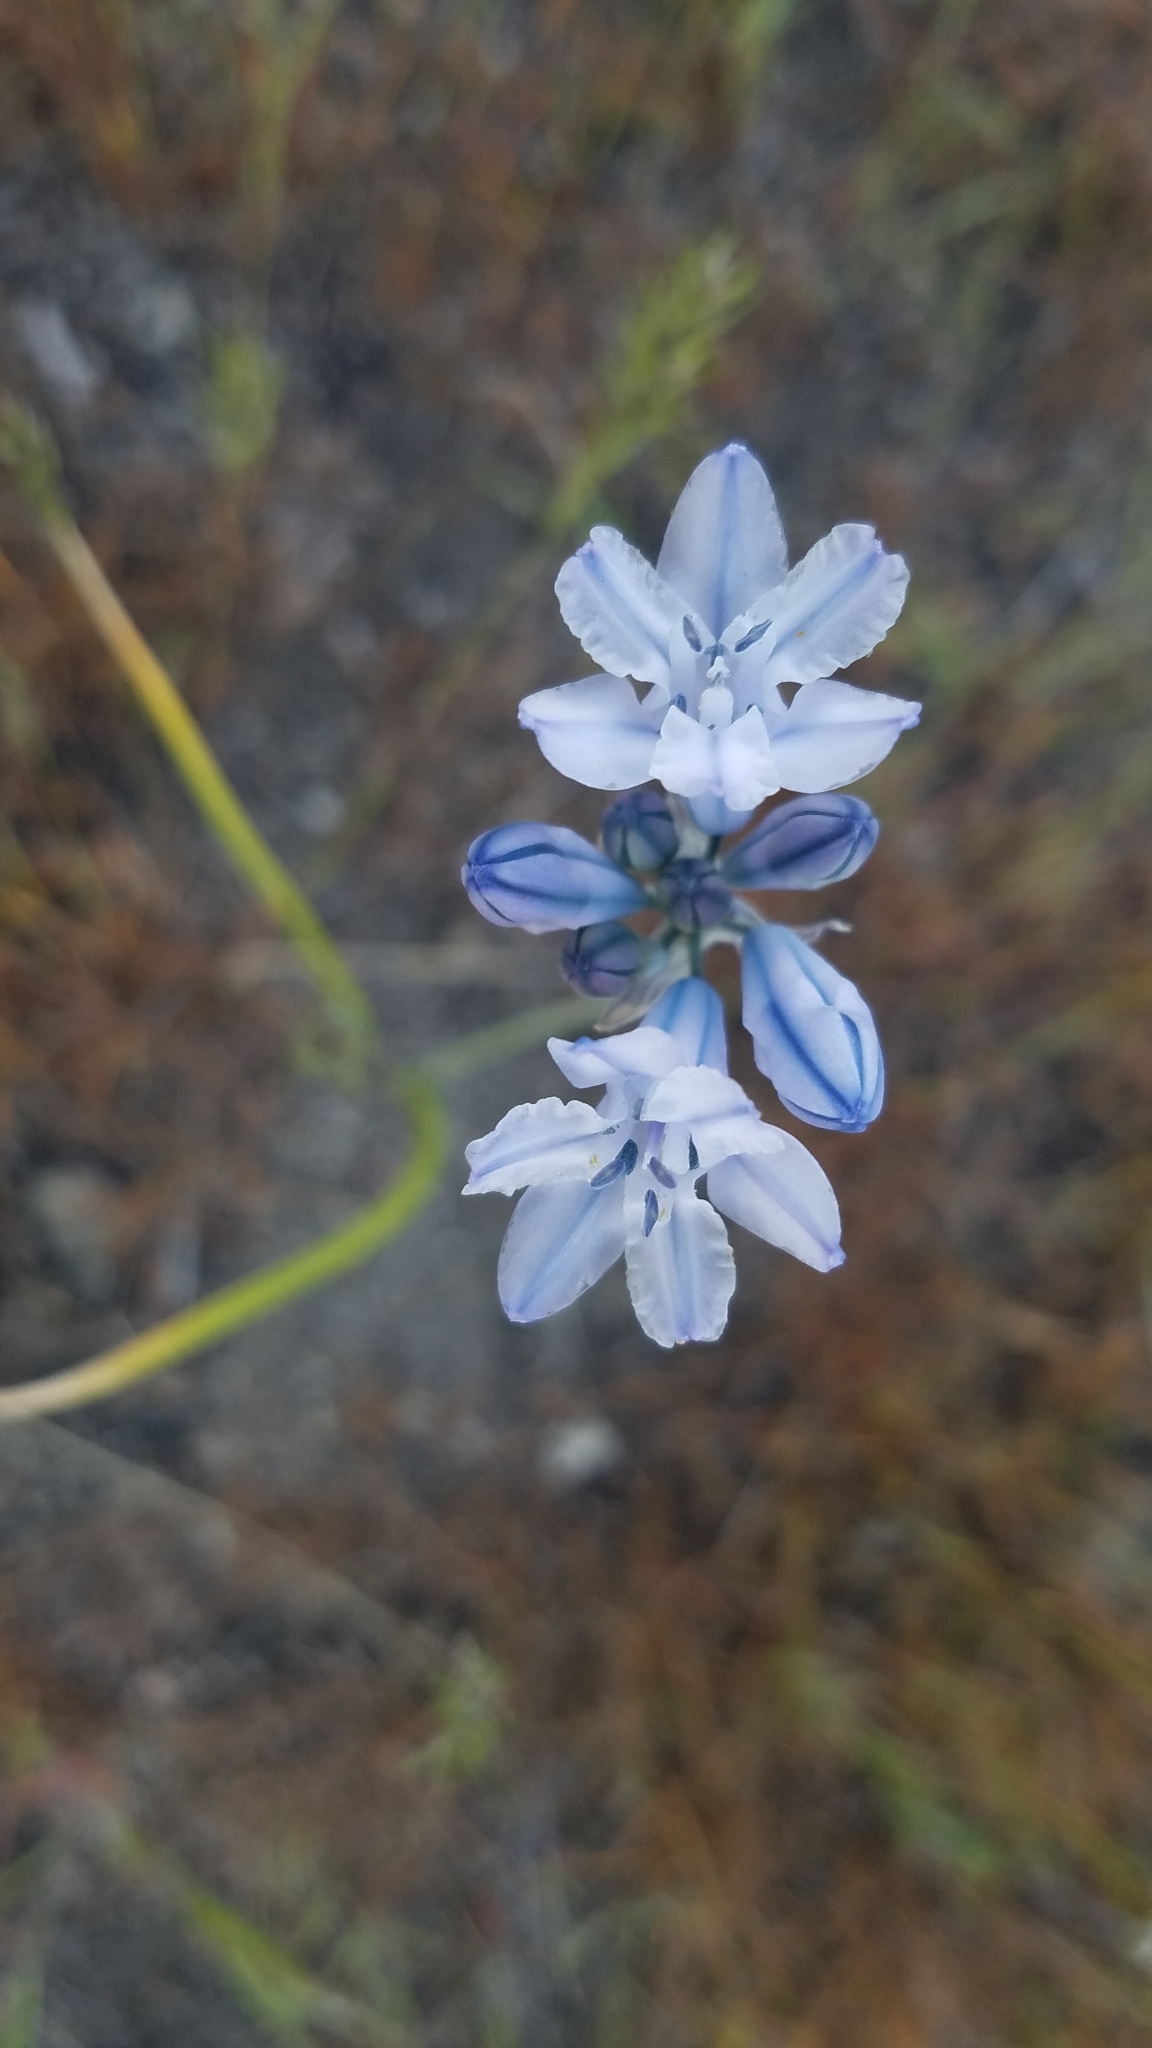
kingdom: Plantae
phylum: Tracheophyta
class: Liliopsida
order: Asparagales
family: Asparagaceae
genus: Triteleia
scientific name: Triteleia grandiflora
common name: Wild hyacinth
